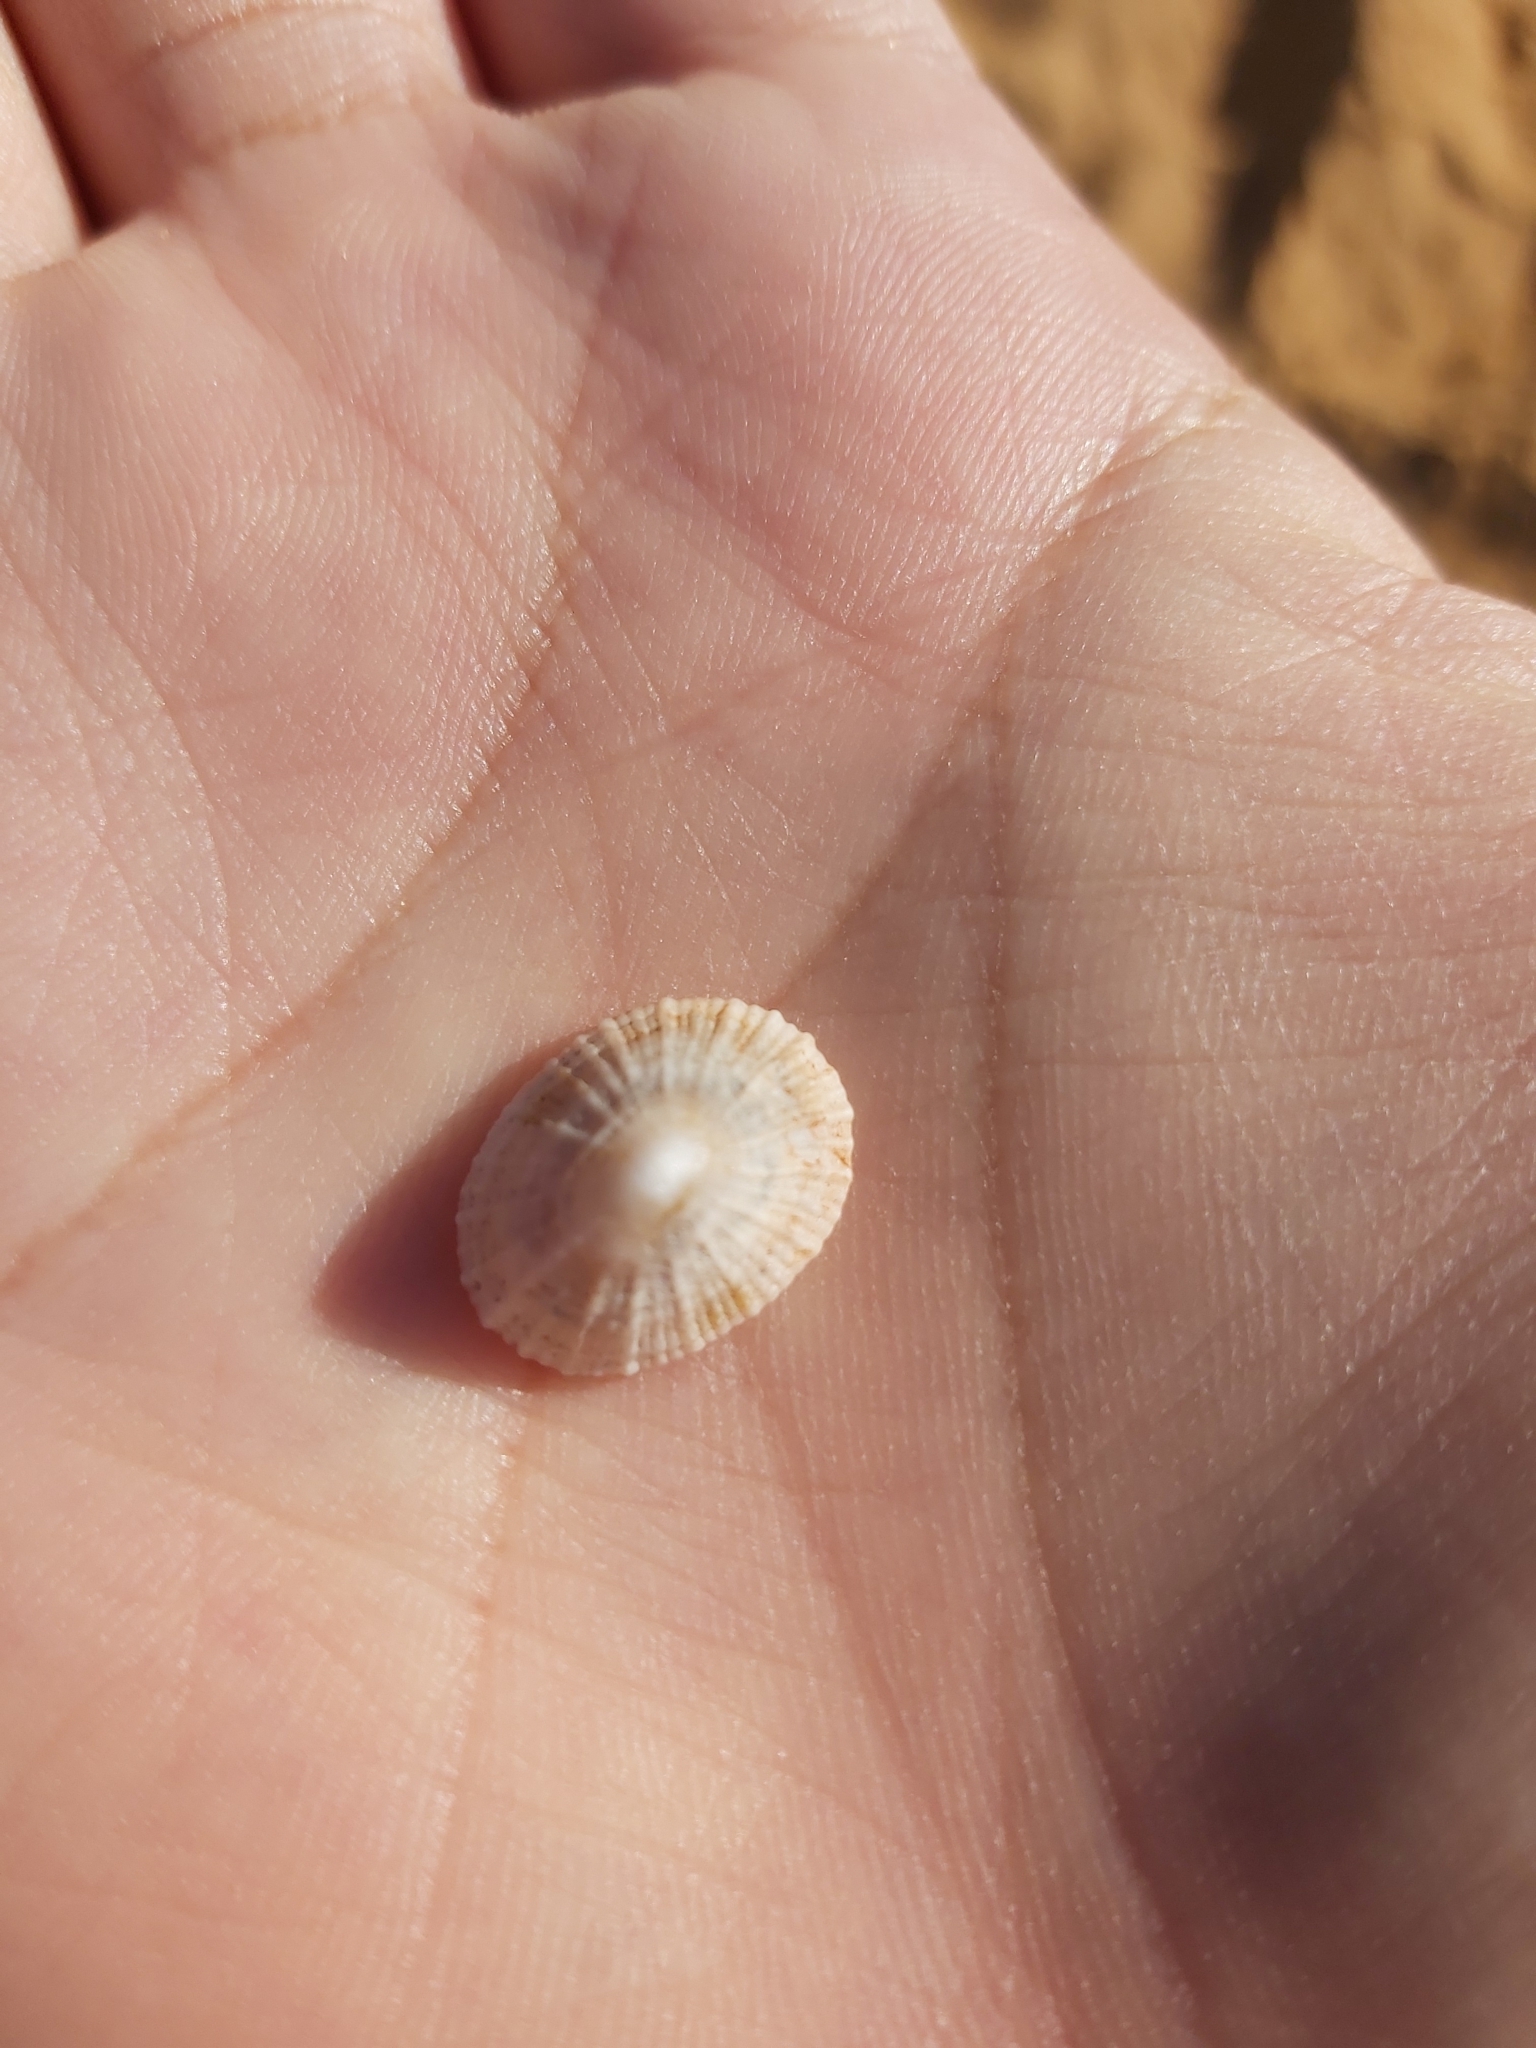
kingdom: Animalia
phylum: Mollusca
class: Gastropoda
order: Lepetellida
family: Fissurellidae
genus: Montfortula
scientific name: Montfortula rugosa
